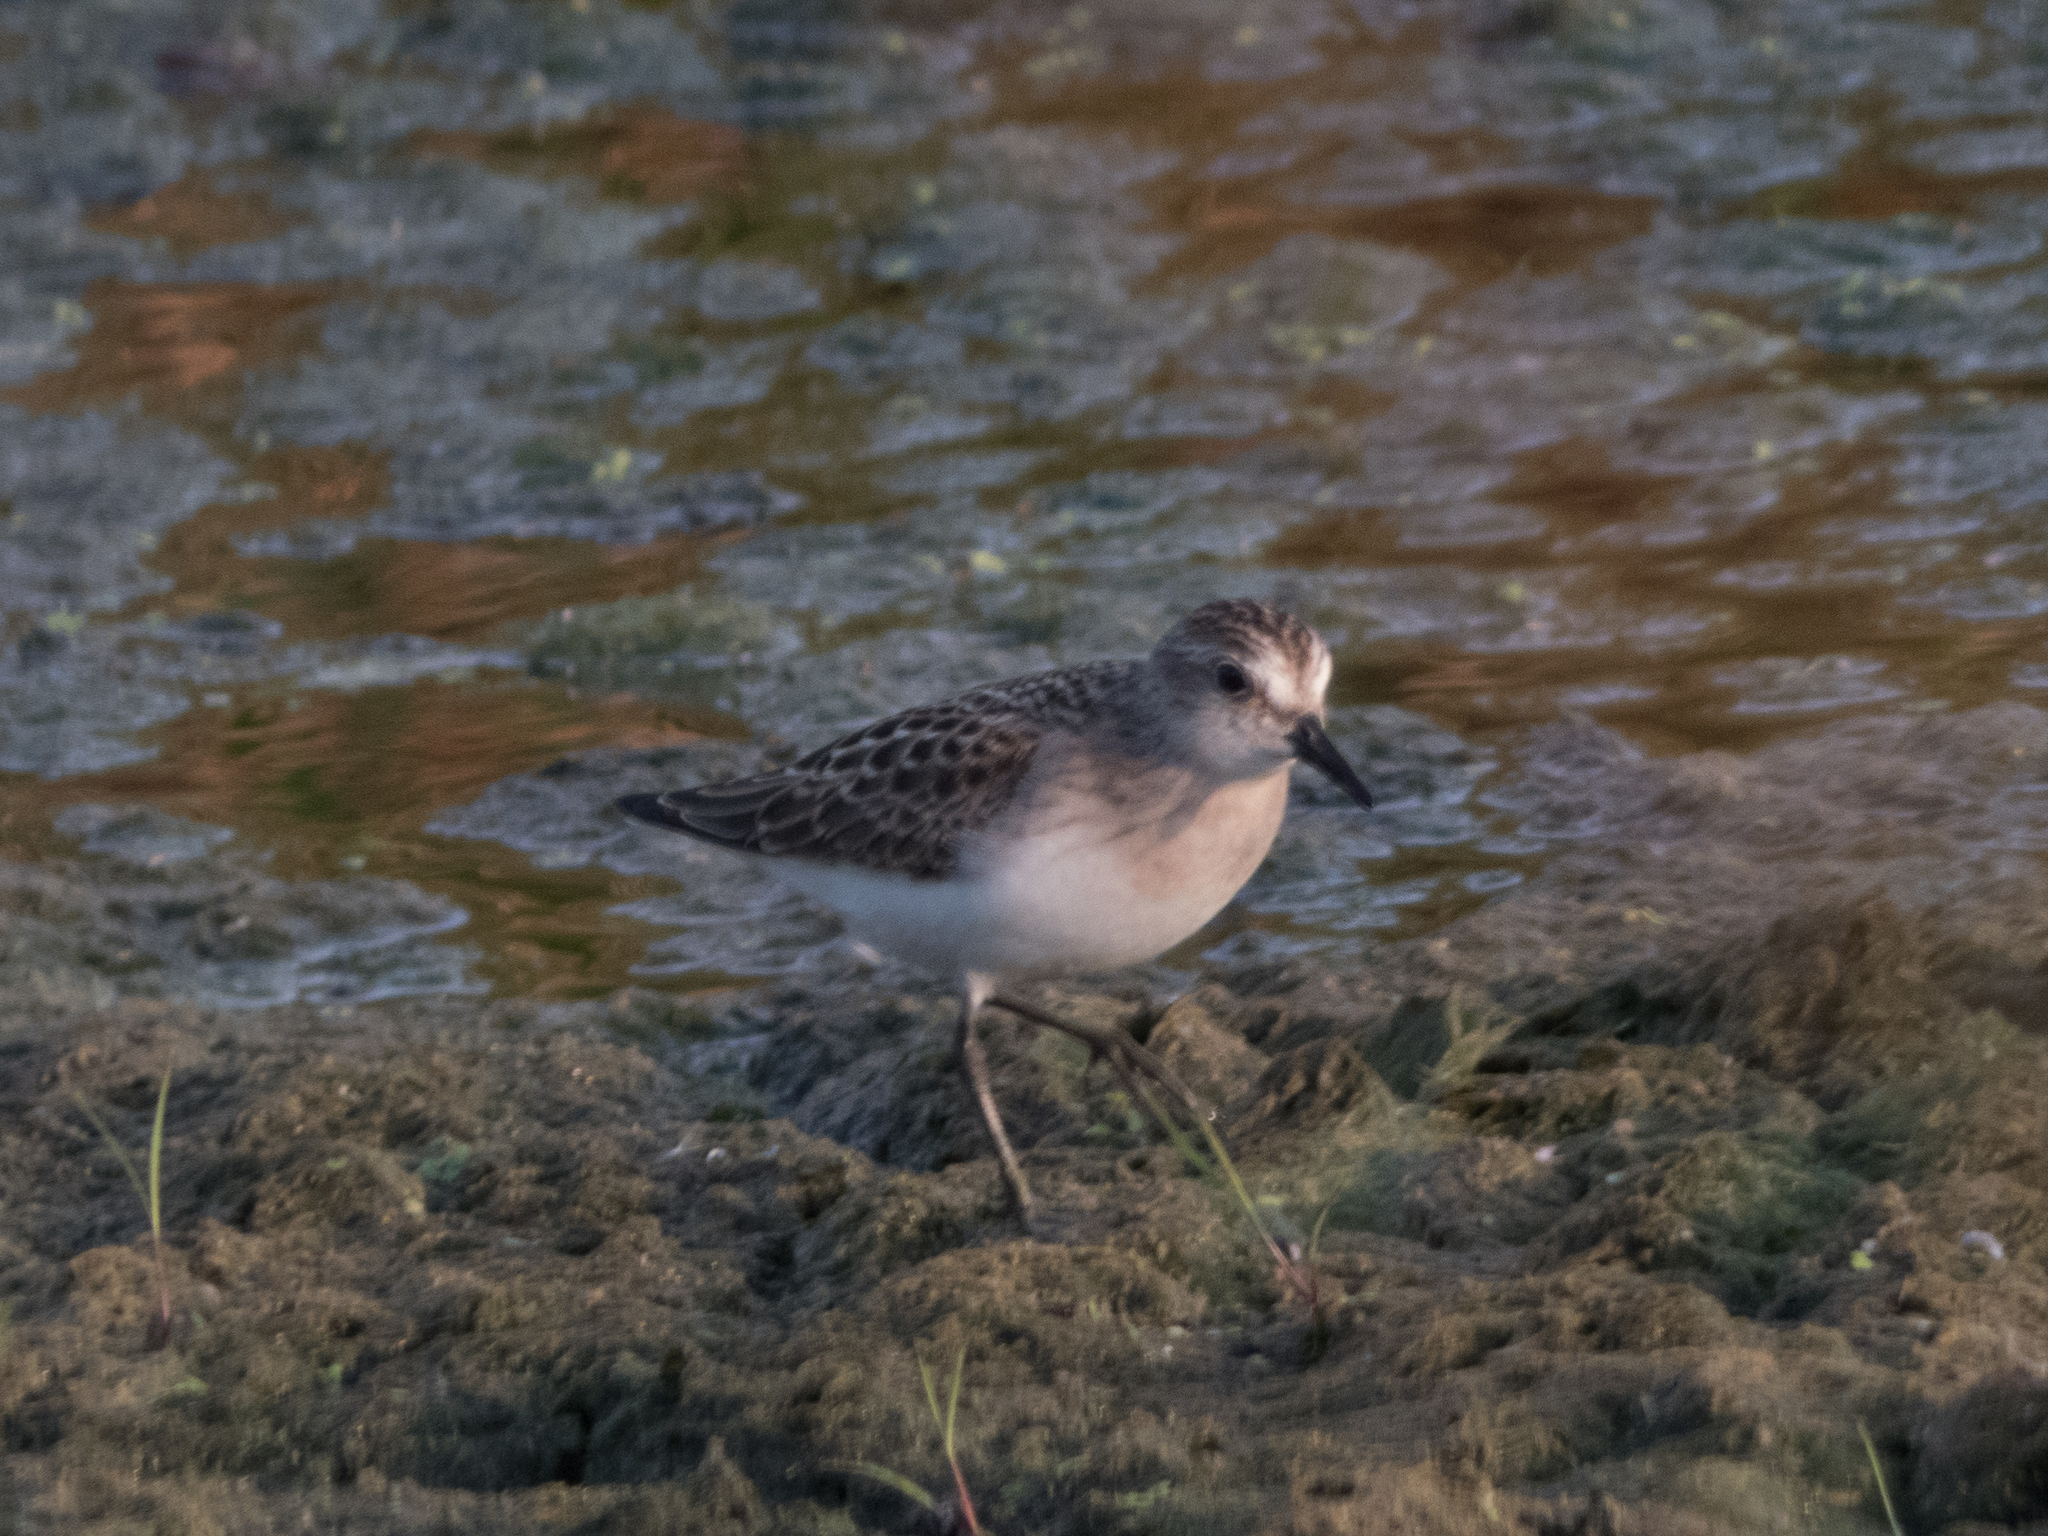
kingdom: Animalia
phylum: Chordata
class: Aves
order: Charadriiformes
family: Scolopacidae
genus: Calidris
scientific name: Calidris pusilla
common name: Semipalmated sandpiper
